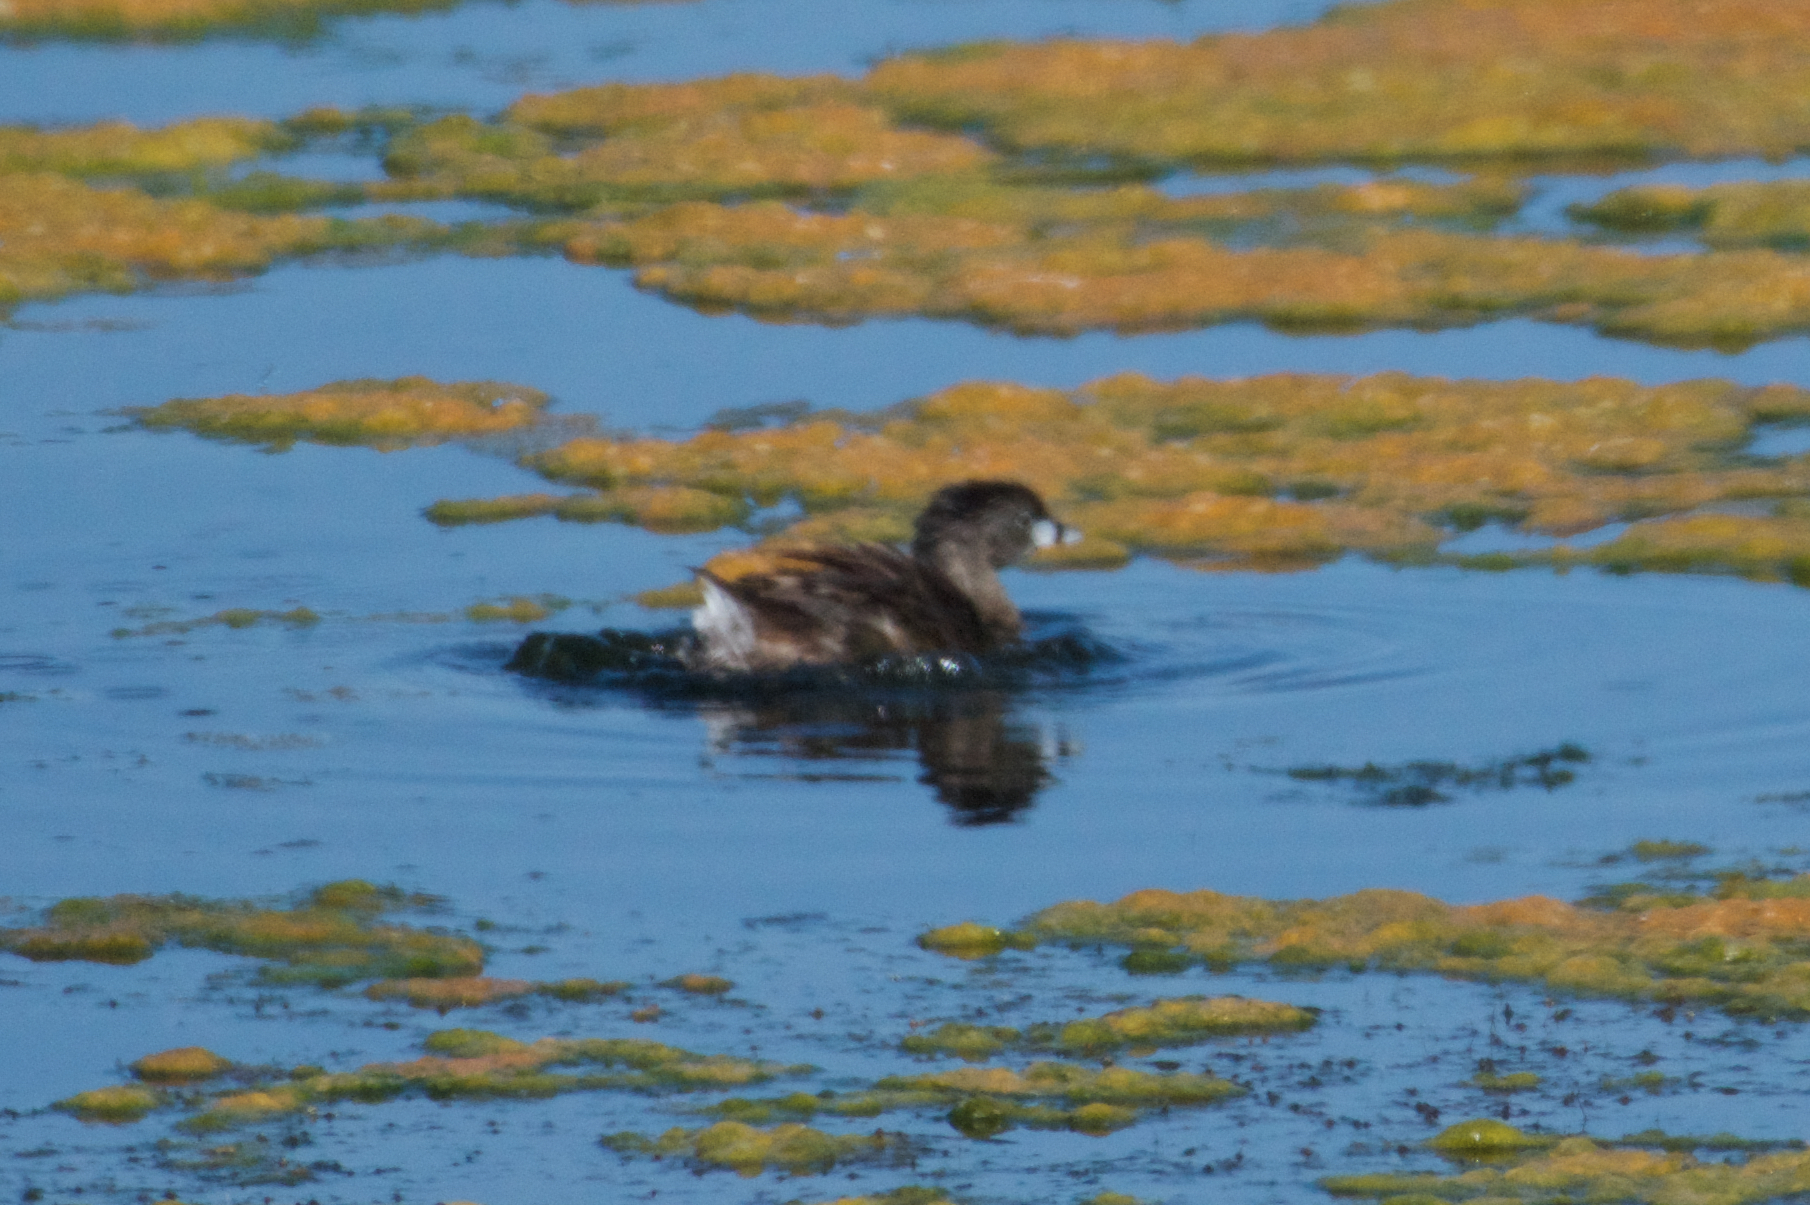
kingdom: Animalia
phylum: Chordata
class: Aves
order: Podicipediformes
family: Podicipedidae
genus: Podilymbus
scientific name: Podilymbus podiceps
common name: Pied-billed grebe
